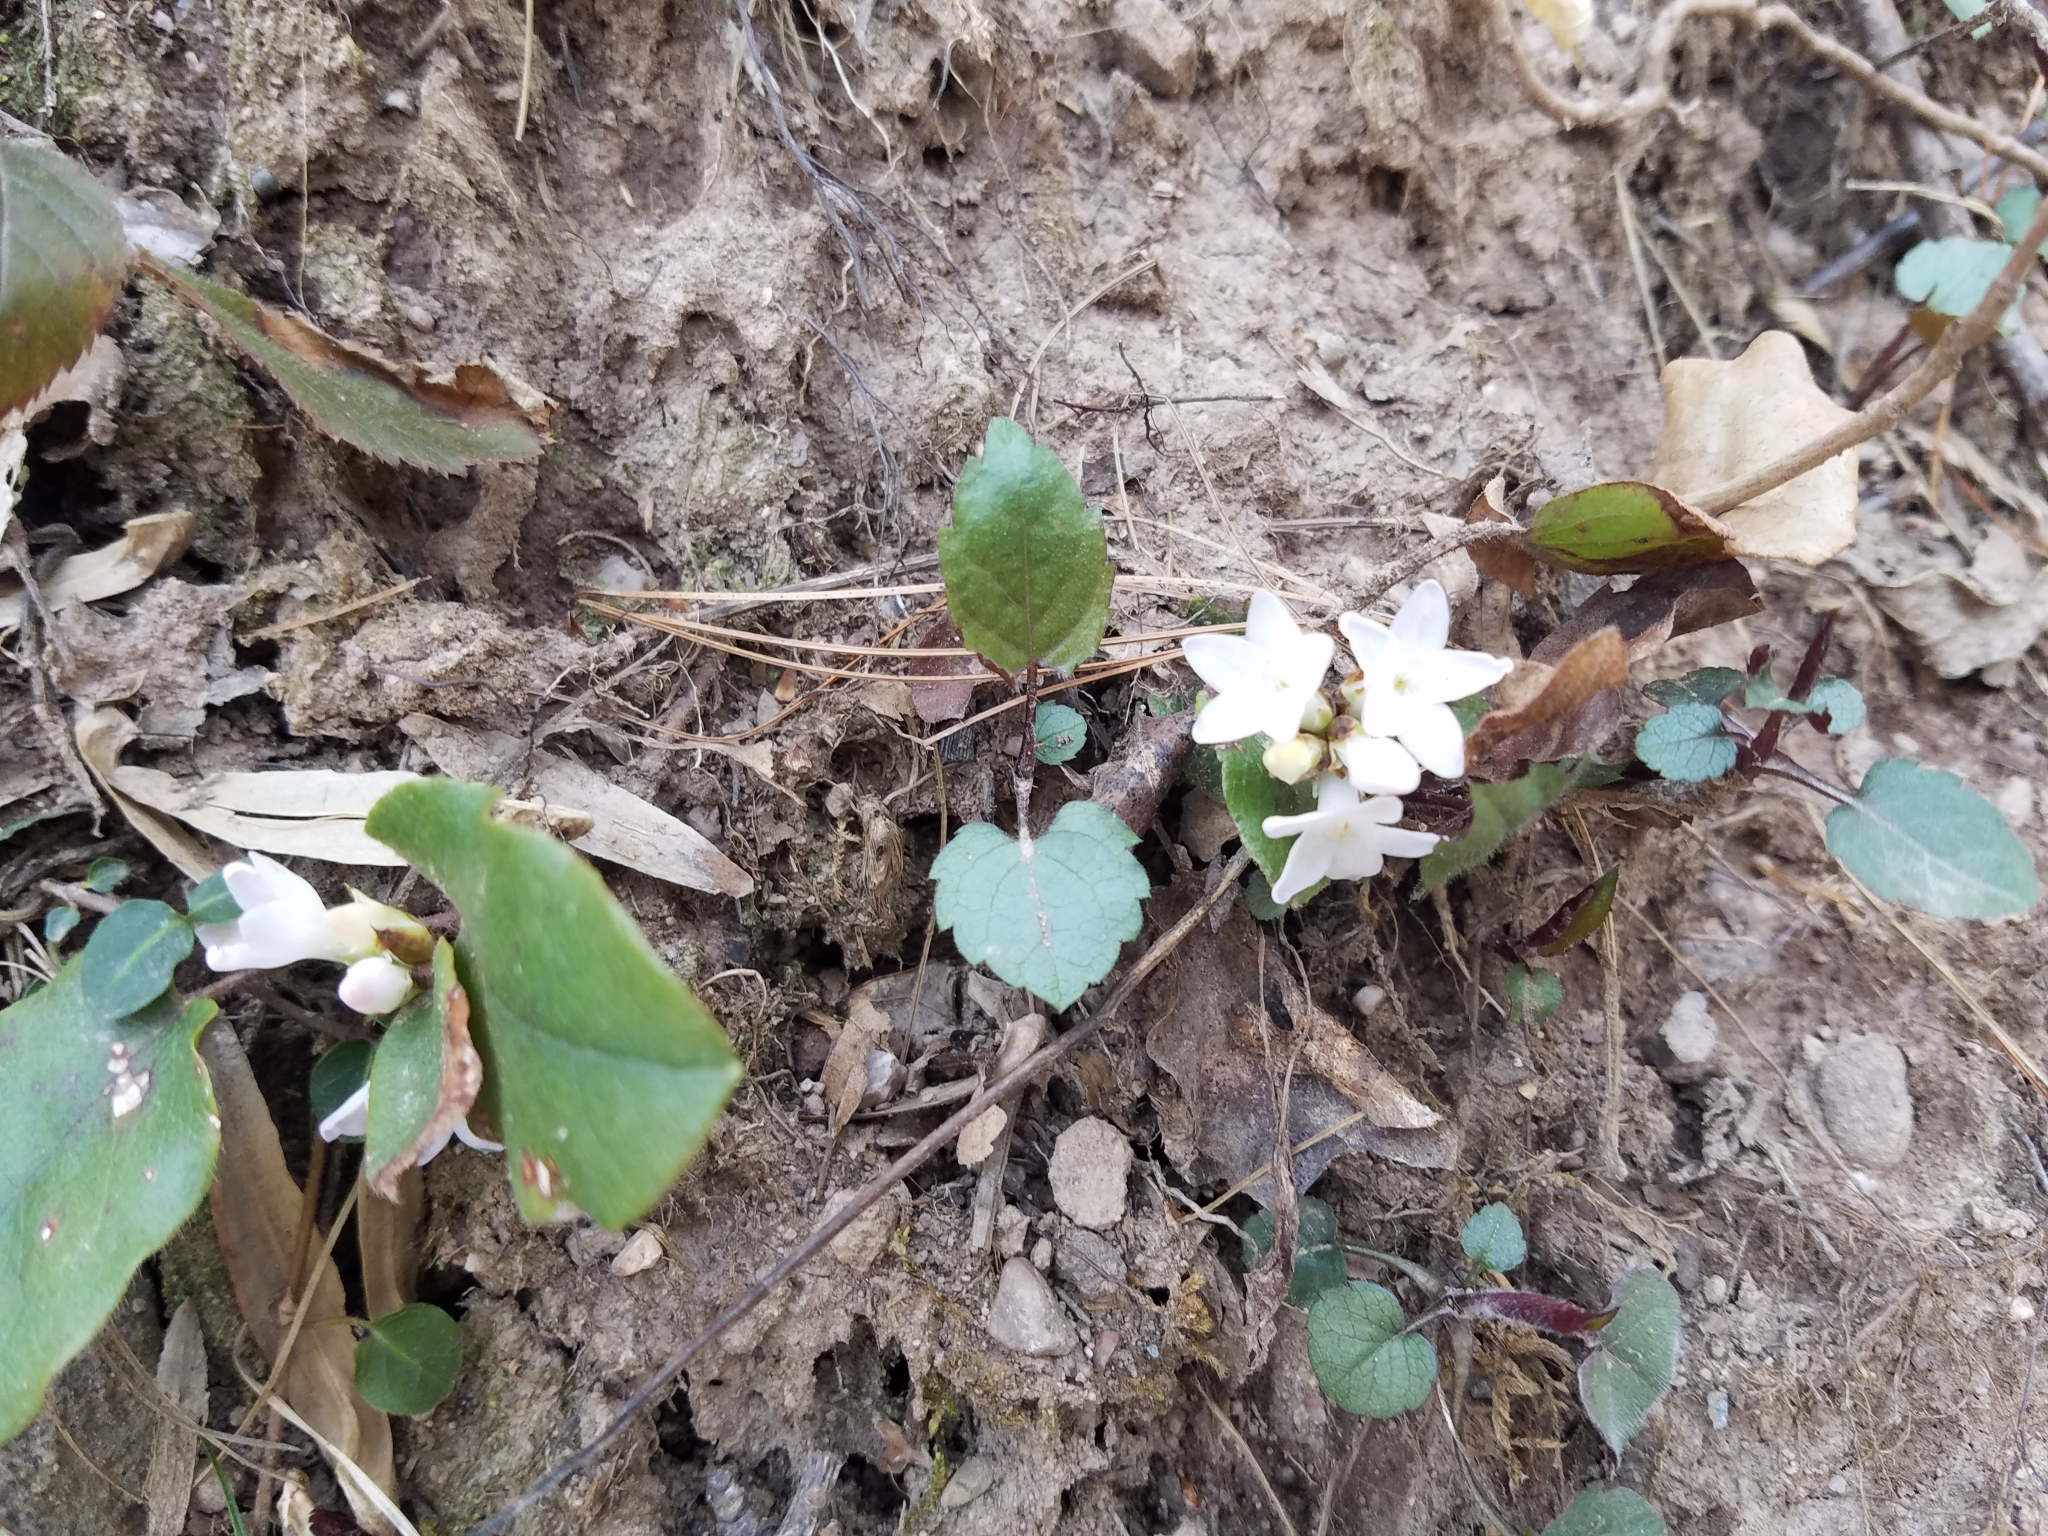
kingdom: Plantae
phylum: Tracheophyta
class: Magnoliopsida
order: Ericales
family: Ericaceae
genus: Epigaea
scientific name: Epigaea repens
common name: Gravelroot
